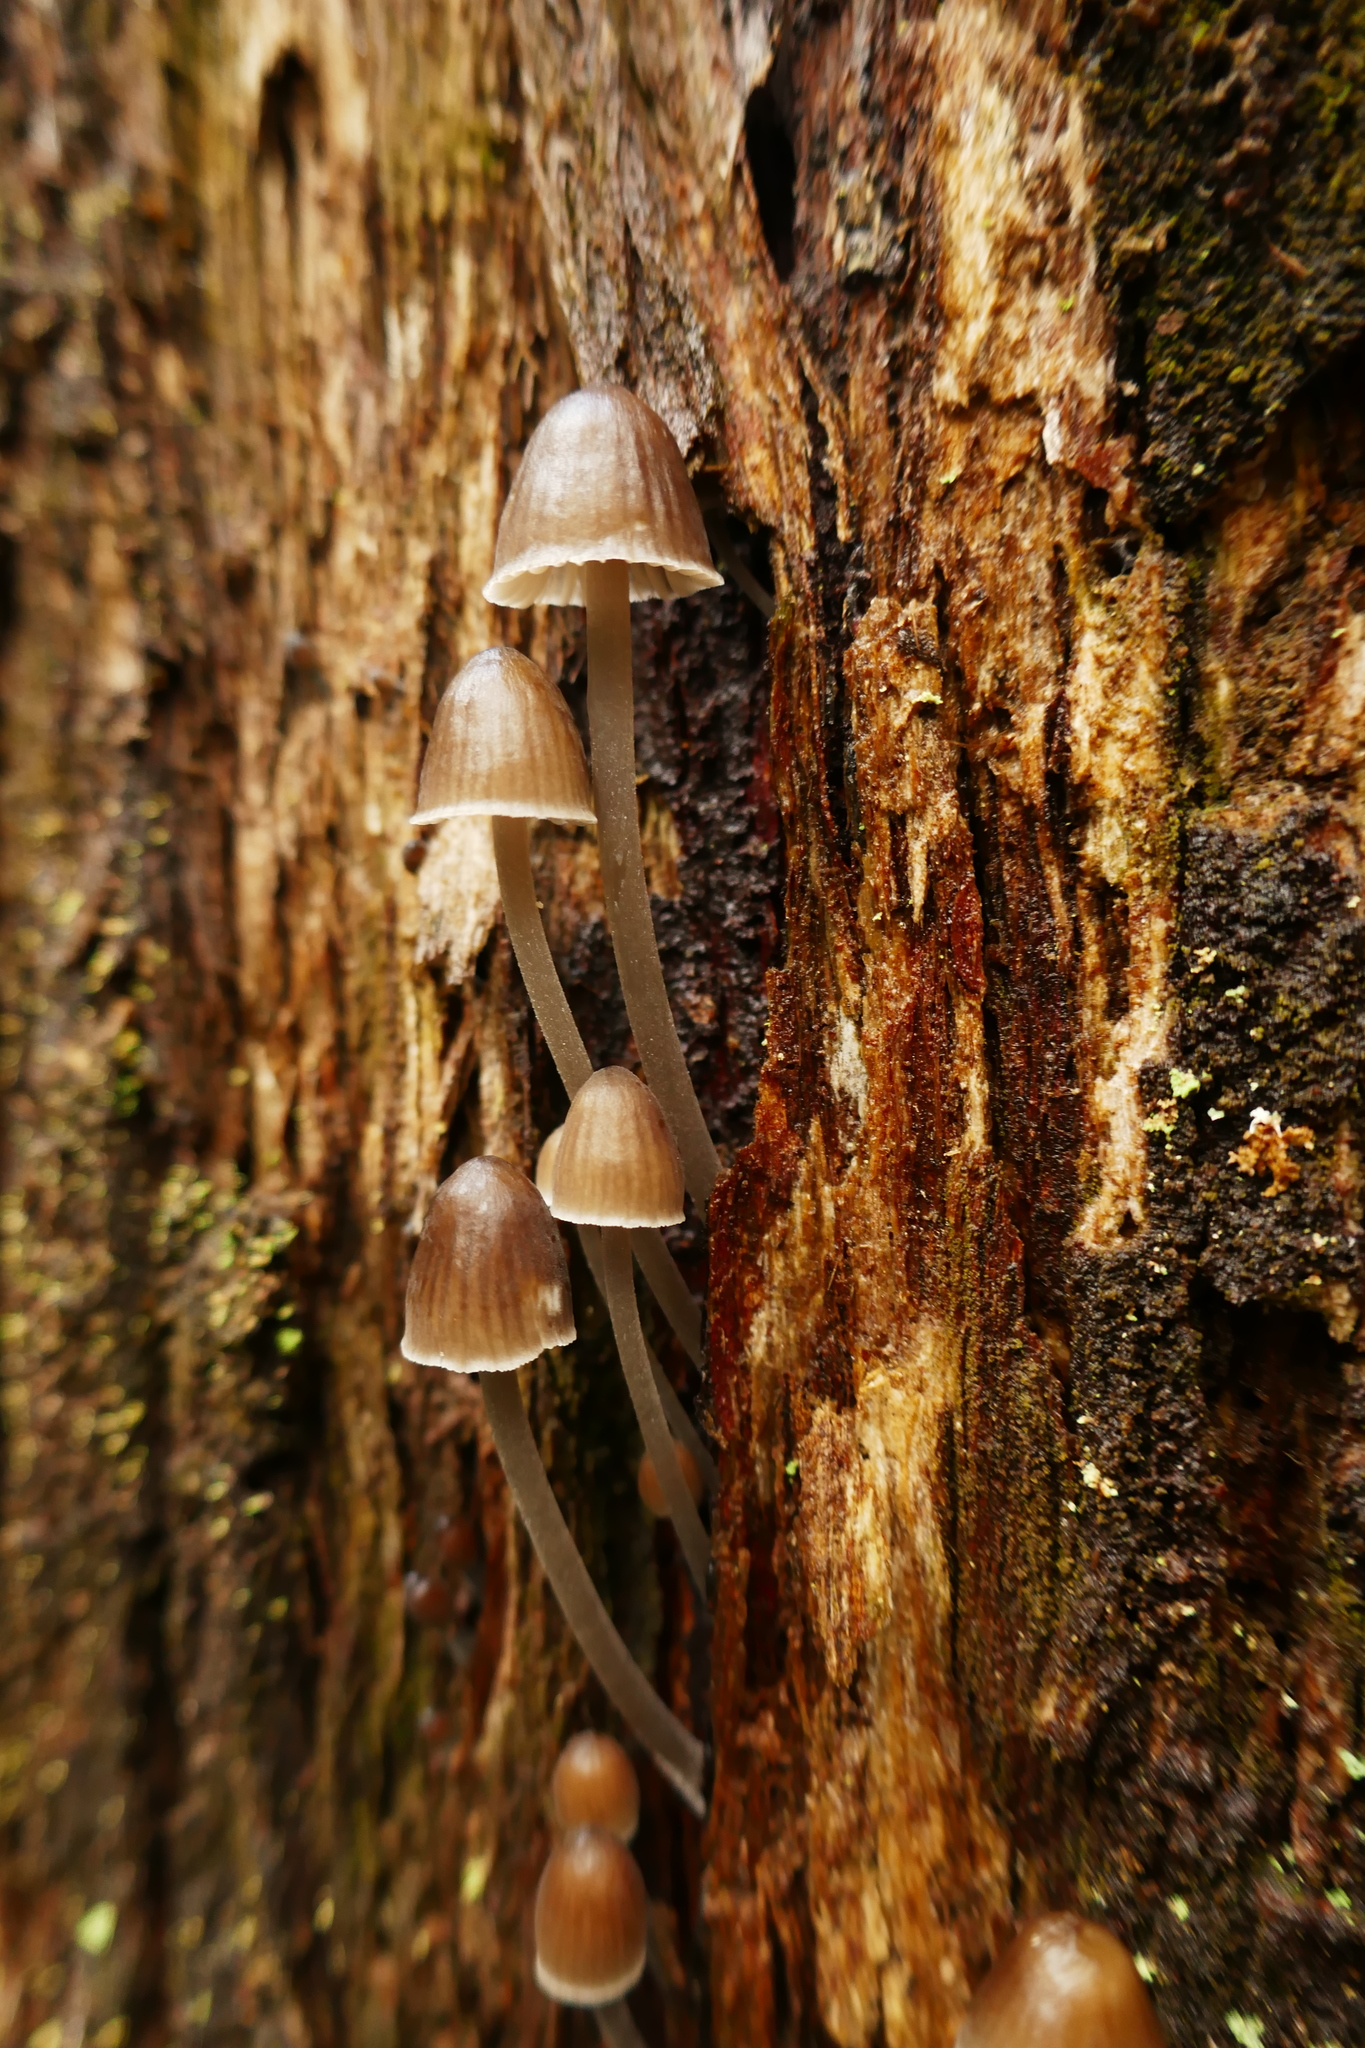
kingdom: Fungi
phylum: Basidiomycota
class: Agaricomycetes
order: Agaricales
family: Mycenaceae
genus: Mycena
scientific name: Mycena subgalericulata
